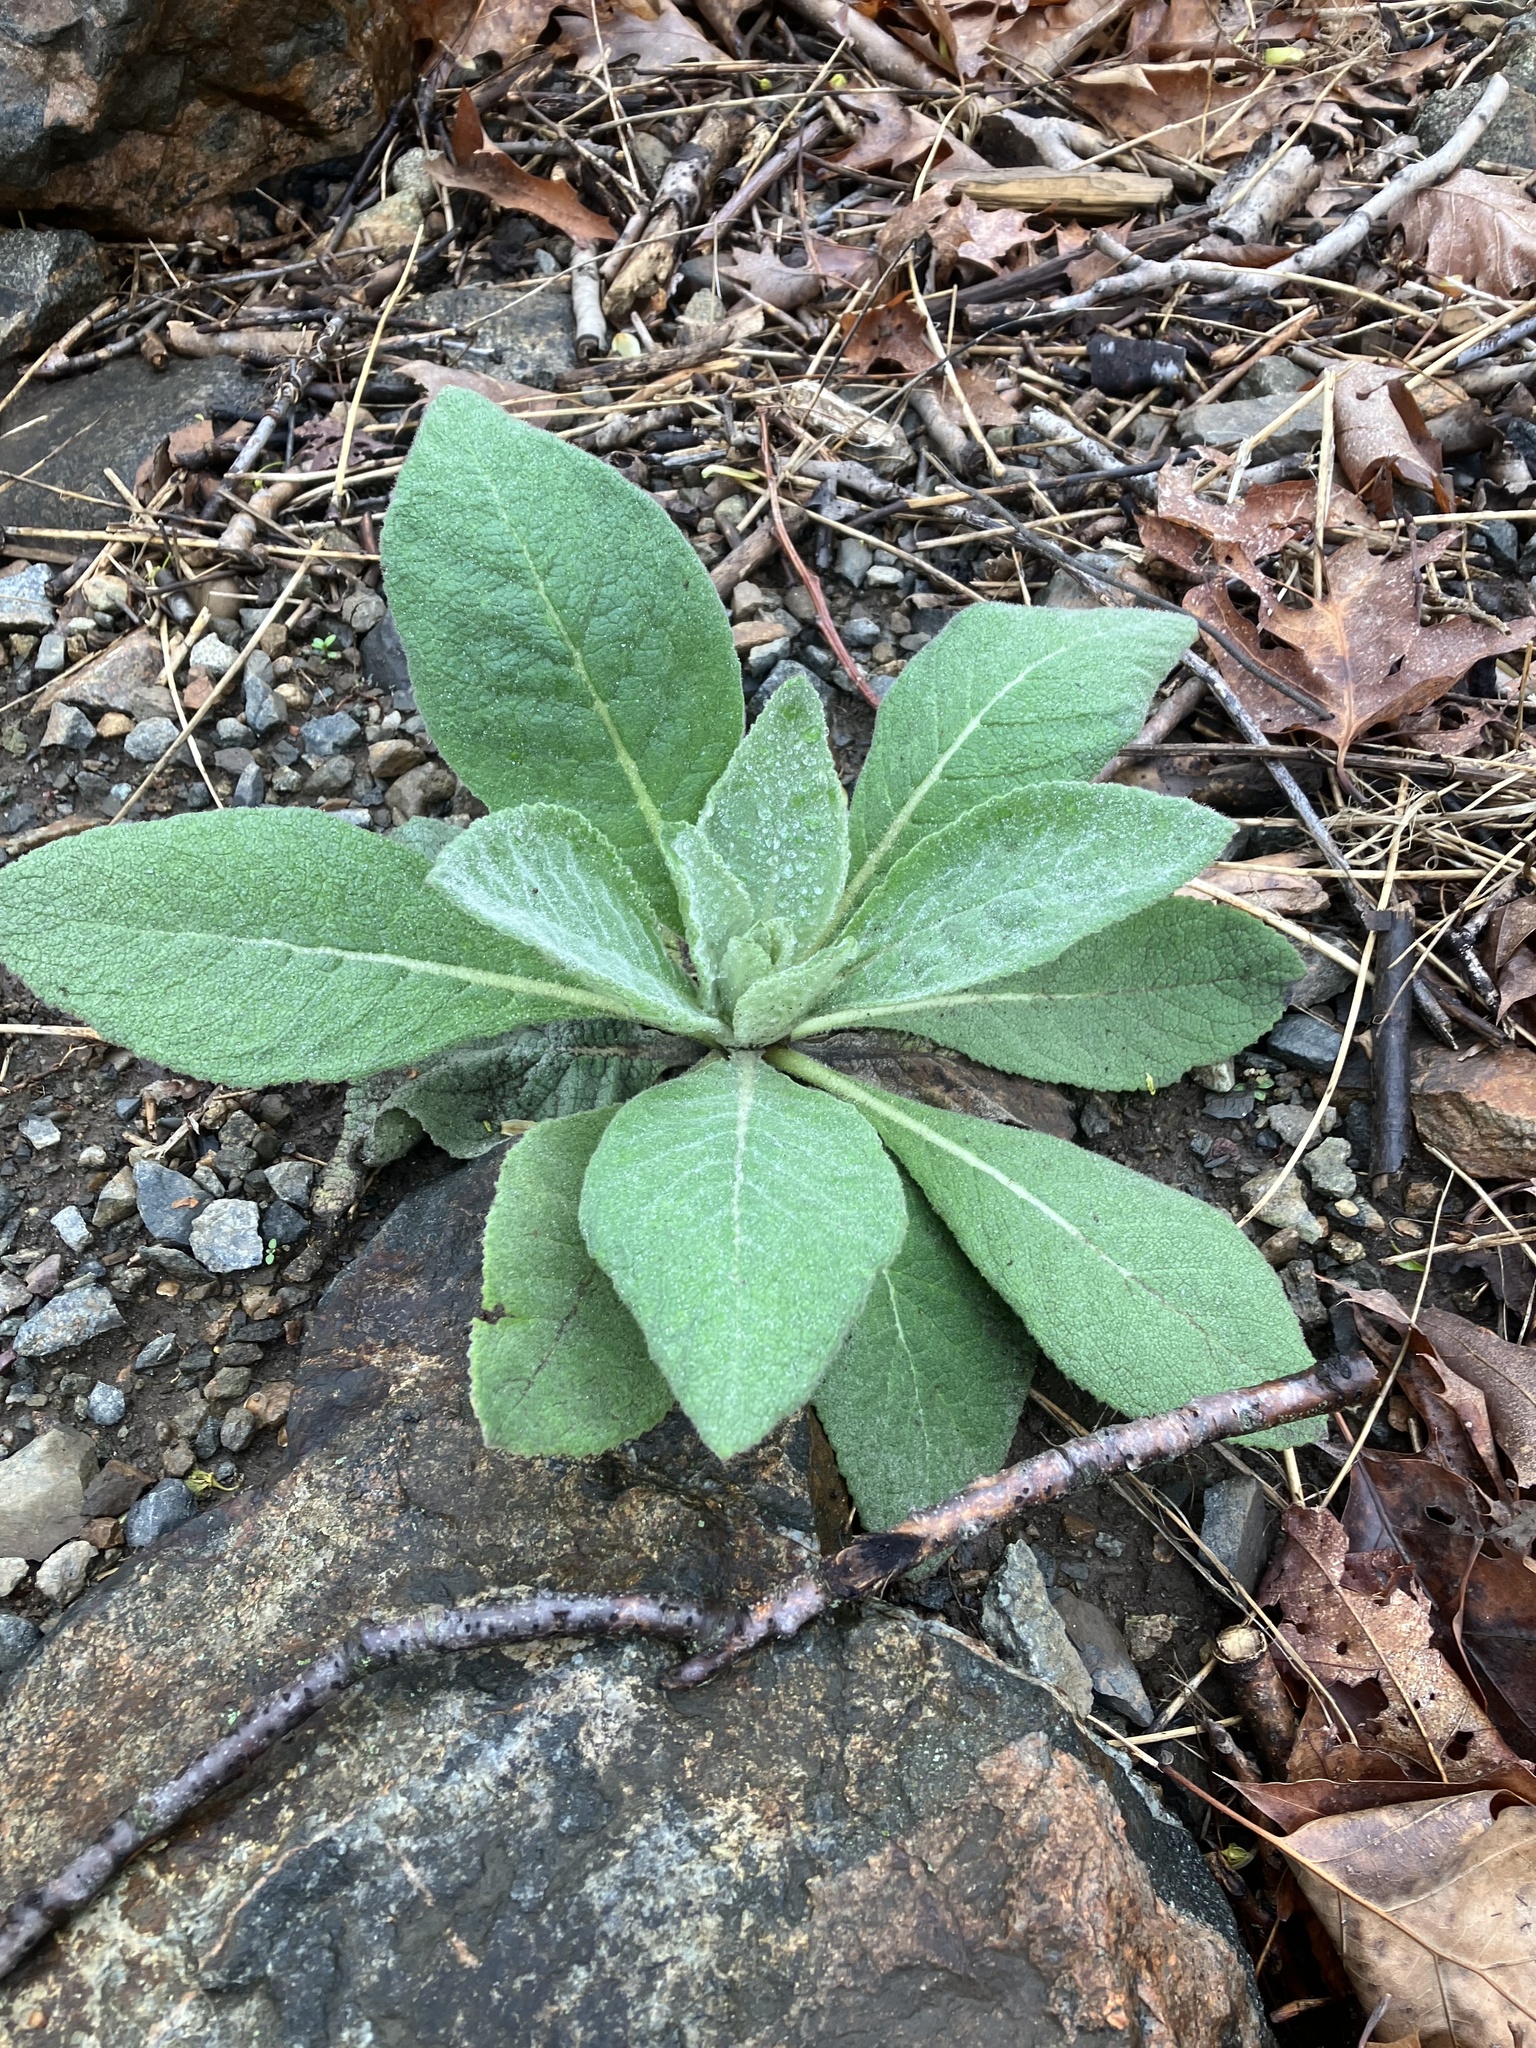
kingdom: Plantae
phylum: Tracheophyta
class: Magnoliopsida
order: Lamiales
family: Scrophulariaceae
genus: Verbascum
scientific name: Verbascum thapsus
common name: Common mullein
